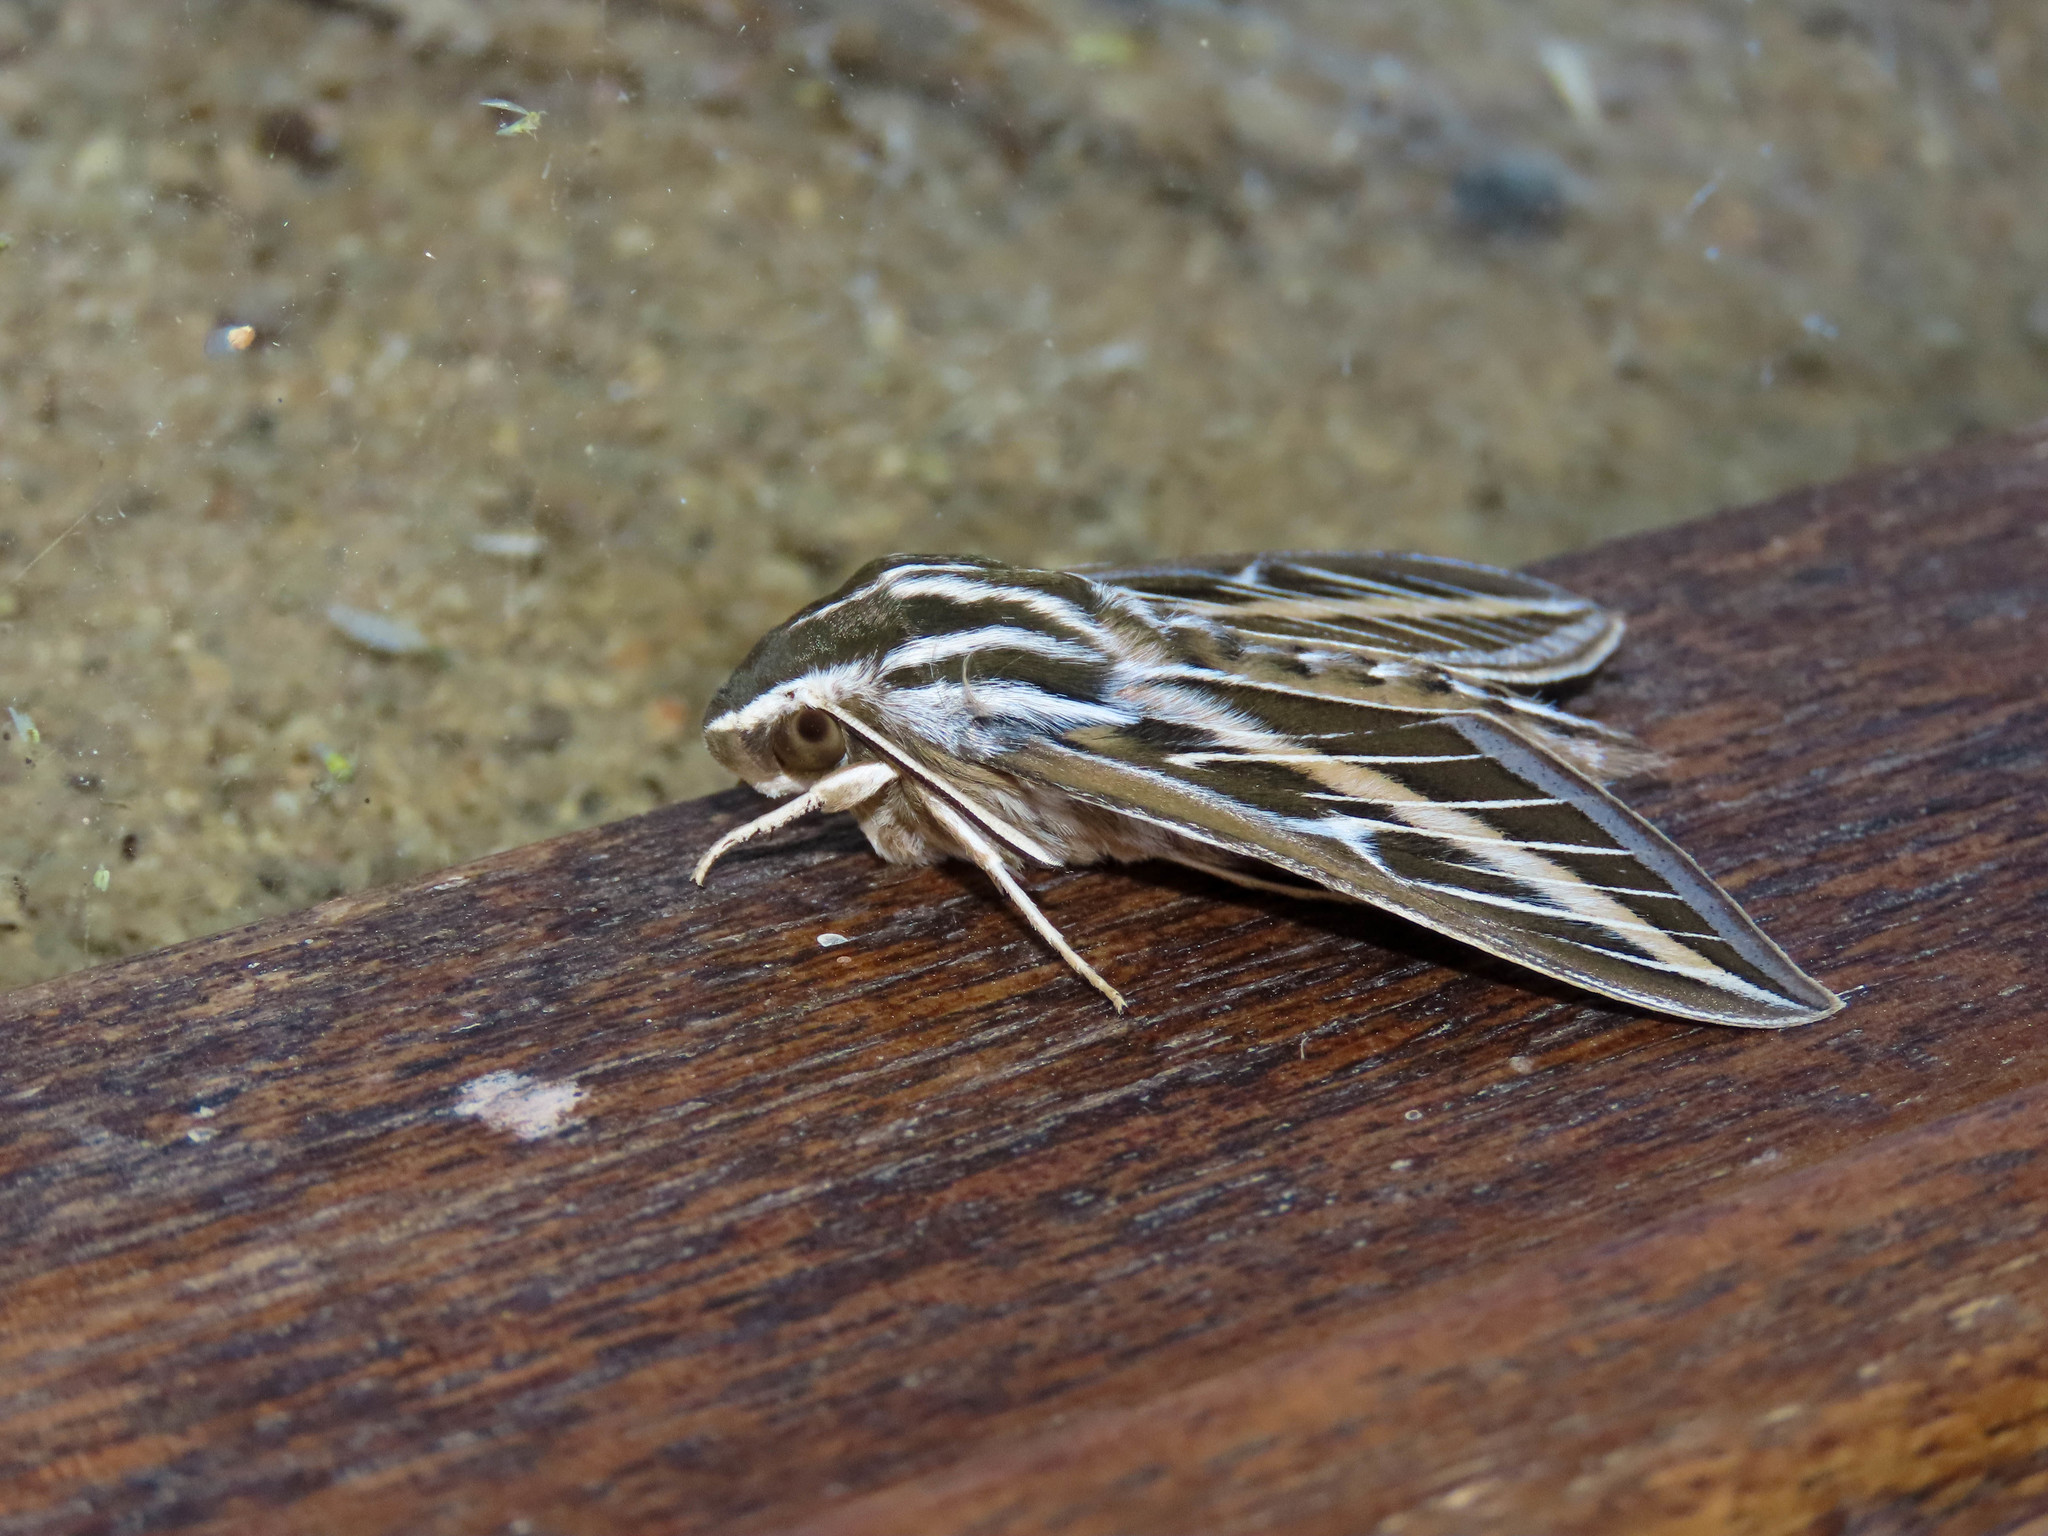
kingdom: Animalia
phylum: Arthropoda
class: Insecta
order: Lepidoptera
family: Sphingidae
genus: Hyles
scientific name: Hyles lineata
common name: White-lined sphinx
